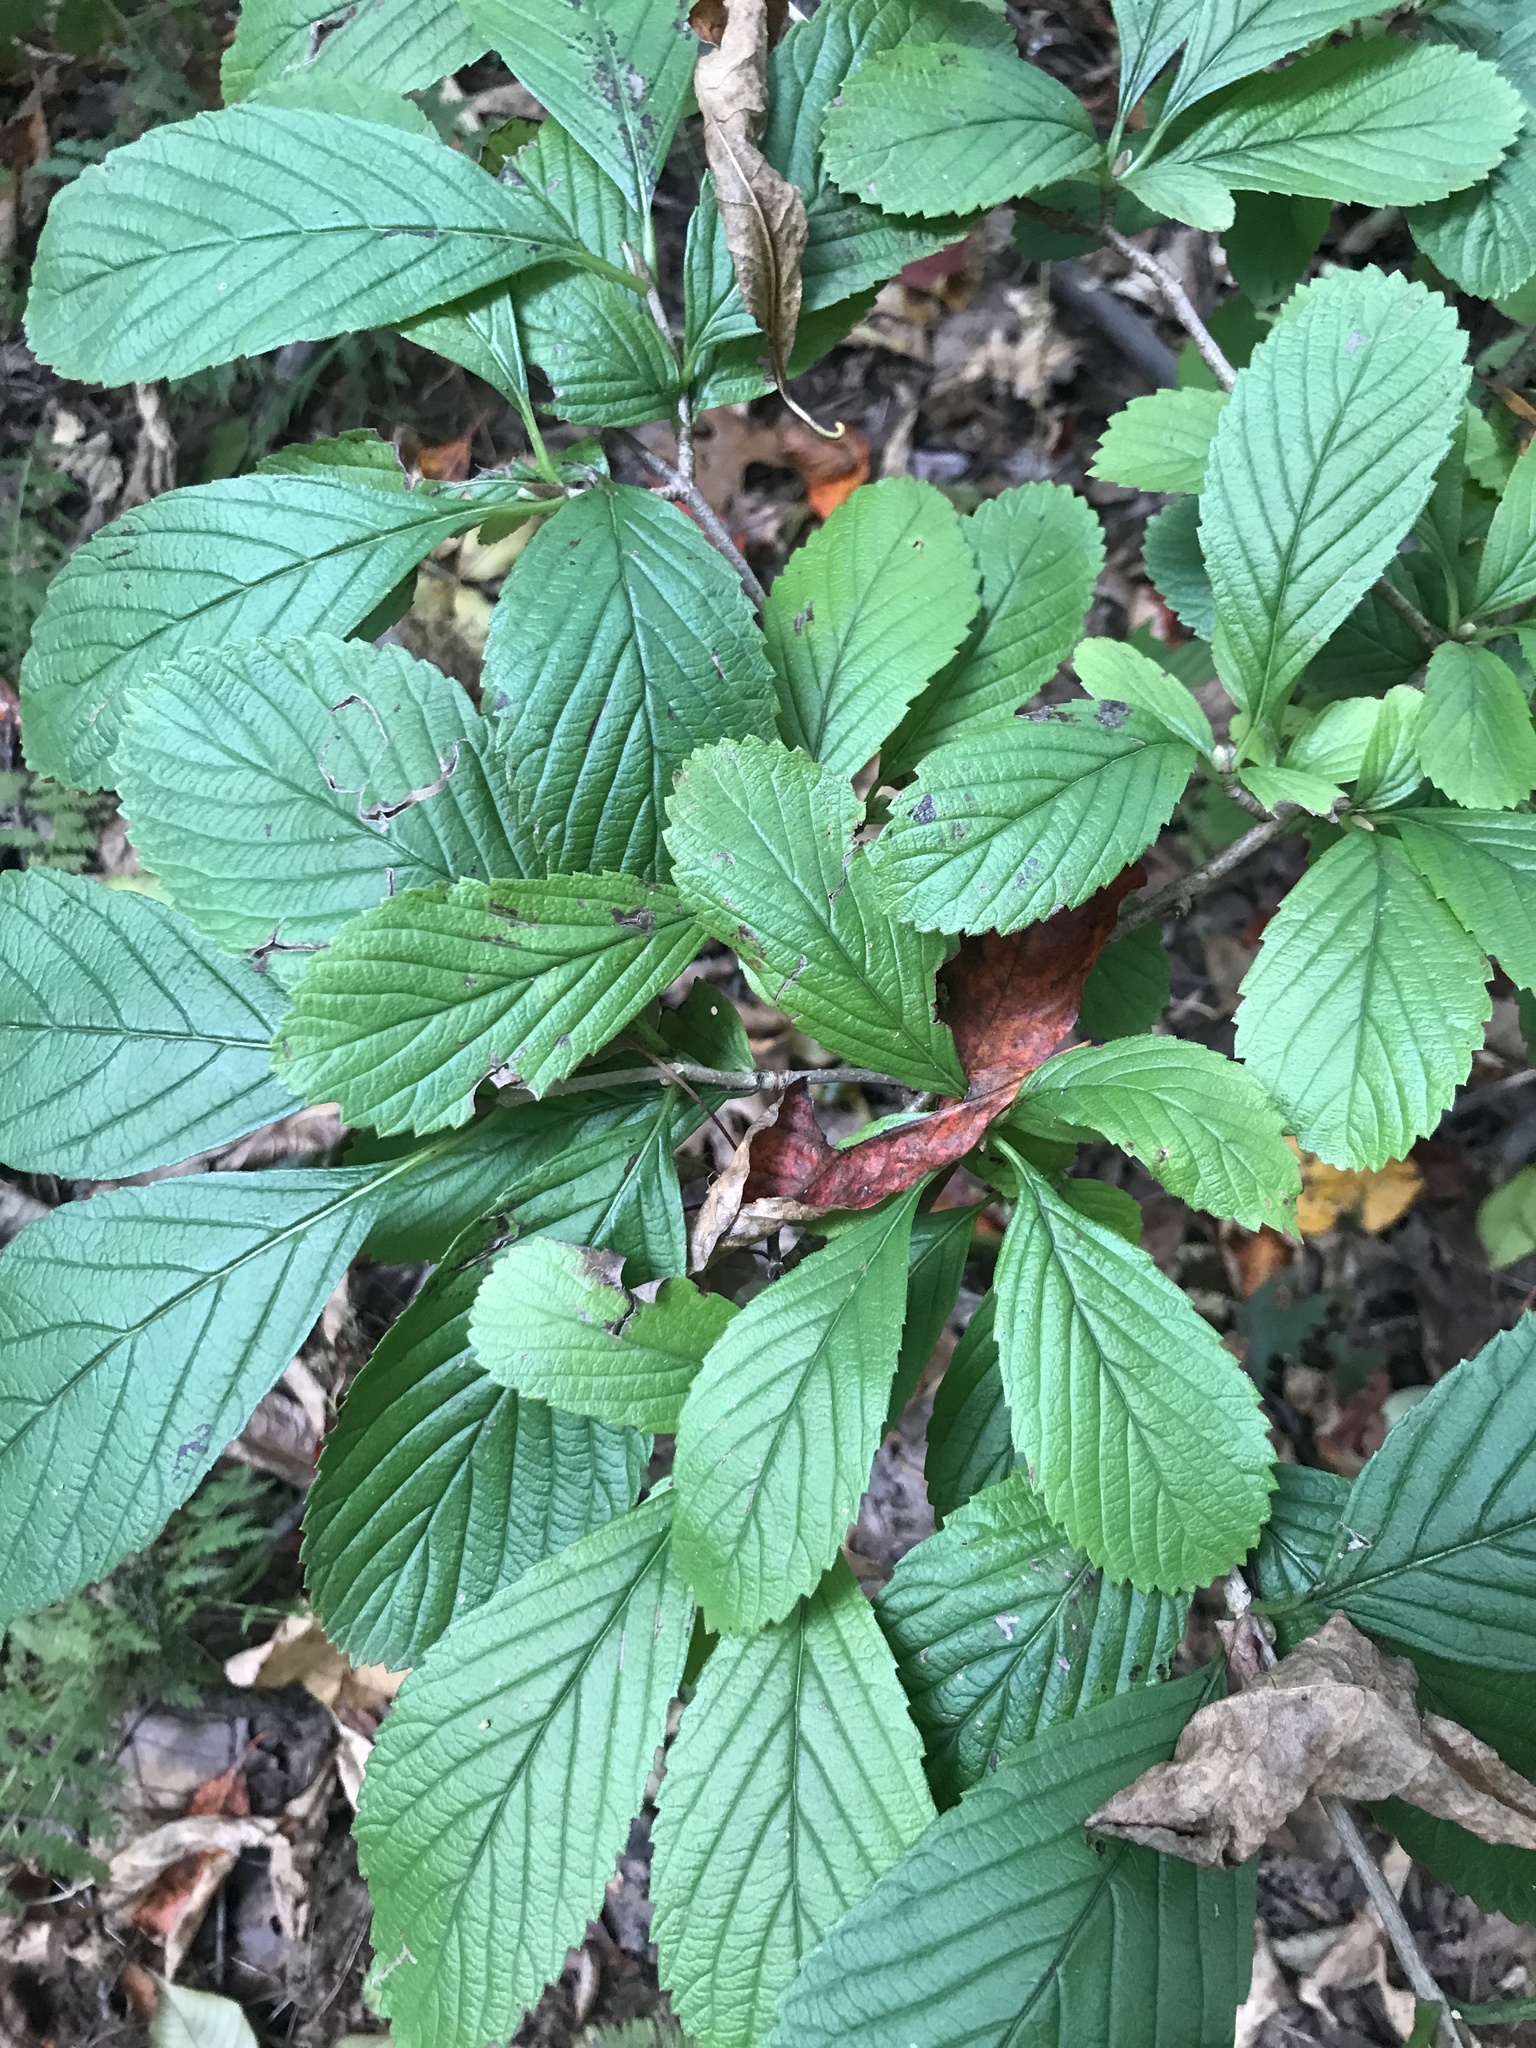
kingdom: Plantae
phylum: Tracheophyta
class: Magnoliopsida
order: Dipsacales
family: Viburnaceae
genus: Viburnum
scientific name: Viburnum sieboldii
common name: Siebold's arrowwood
